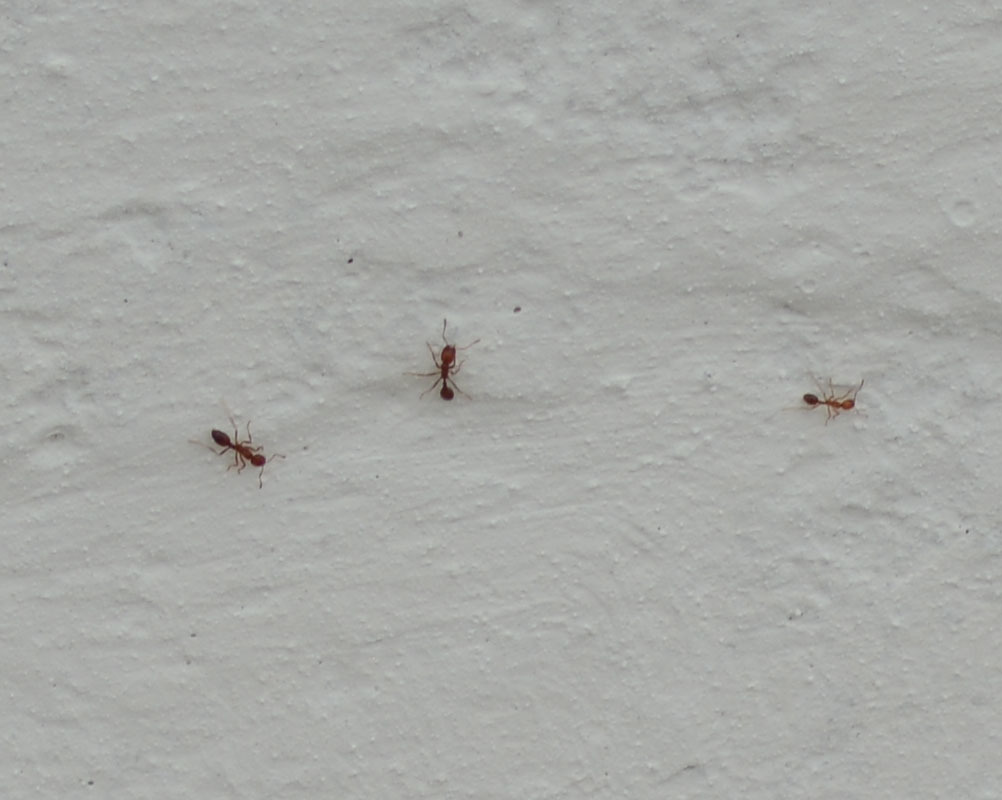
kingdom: Animalia
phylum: Arthropoda
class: Insecta
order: Hymenoptera
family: Formicidae
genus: Solenopsis
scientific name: Solenopsis geminata
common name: Tropical fire ant
